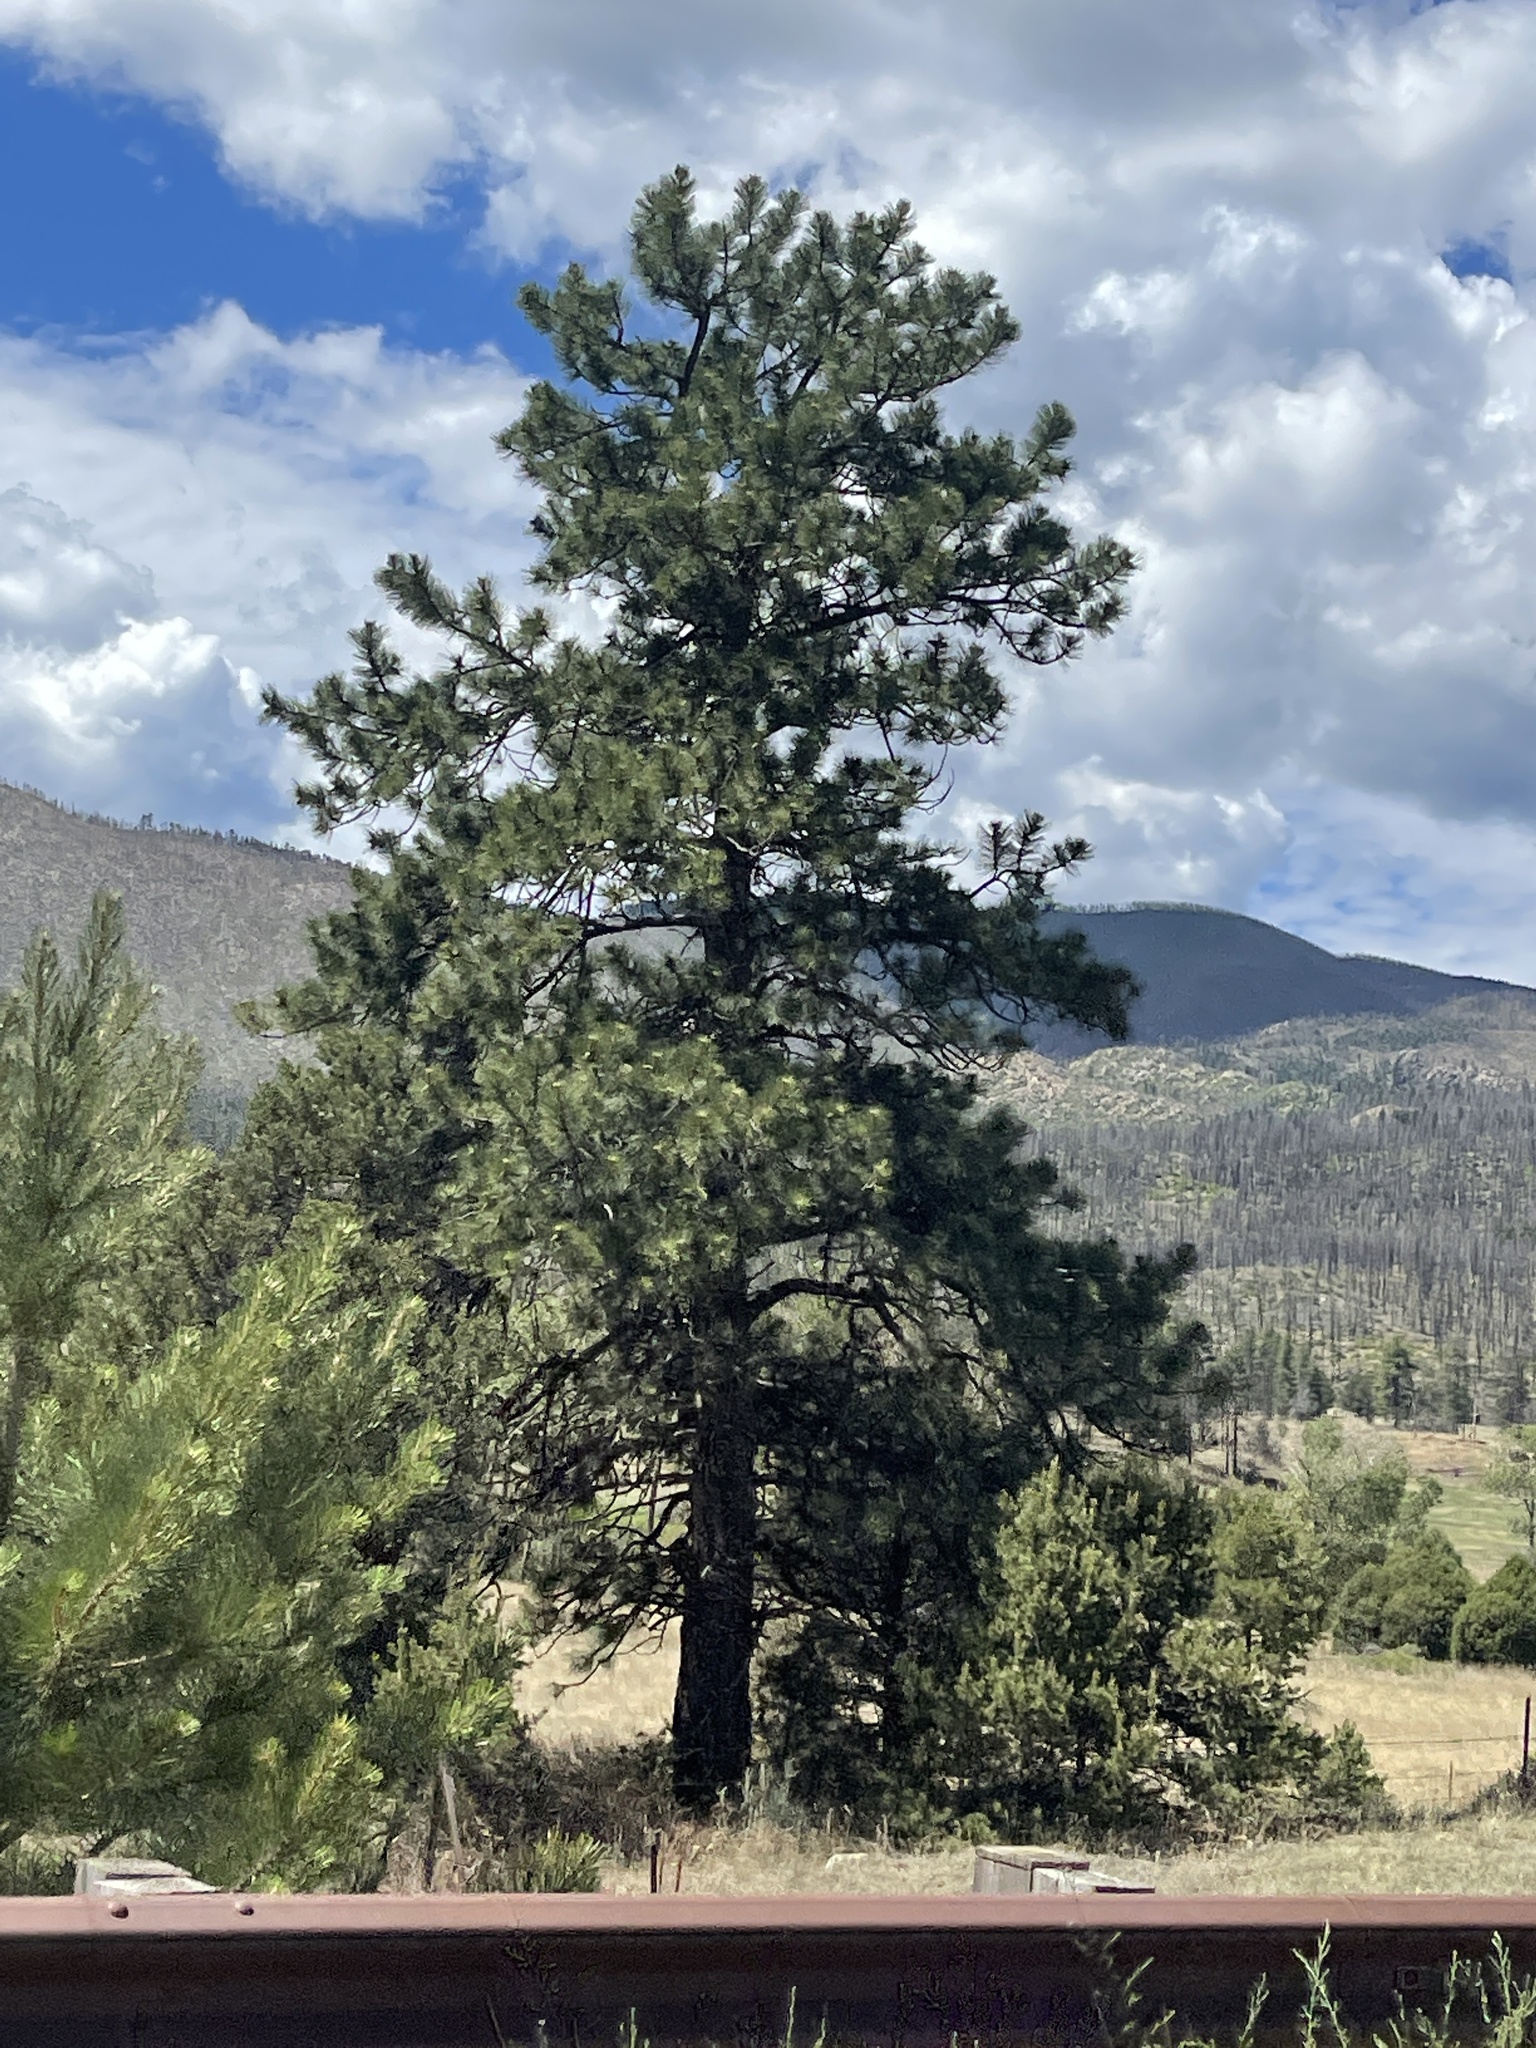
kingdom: Plantae
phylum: Tracheophyta
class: Pinopsida
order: Pinales
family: Pinaceae
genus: Pinus
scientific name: Pinus ponderosa
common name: Western yellow-pine
